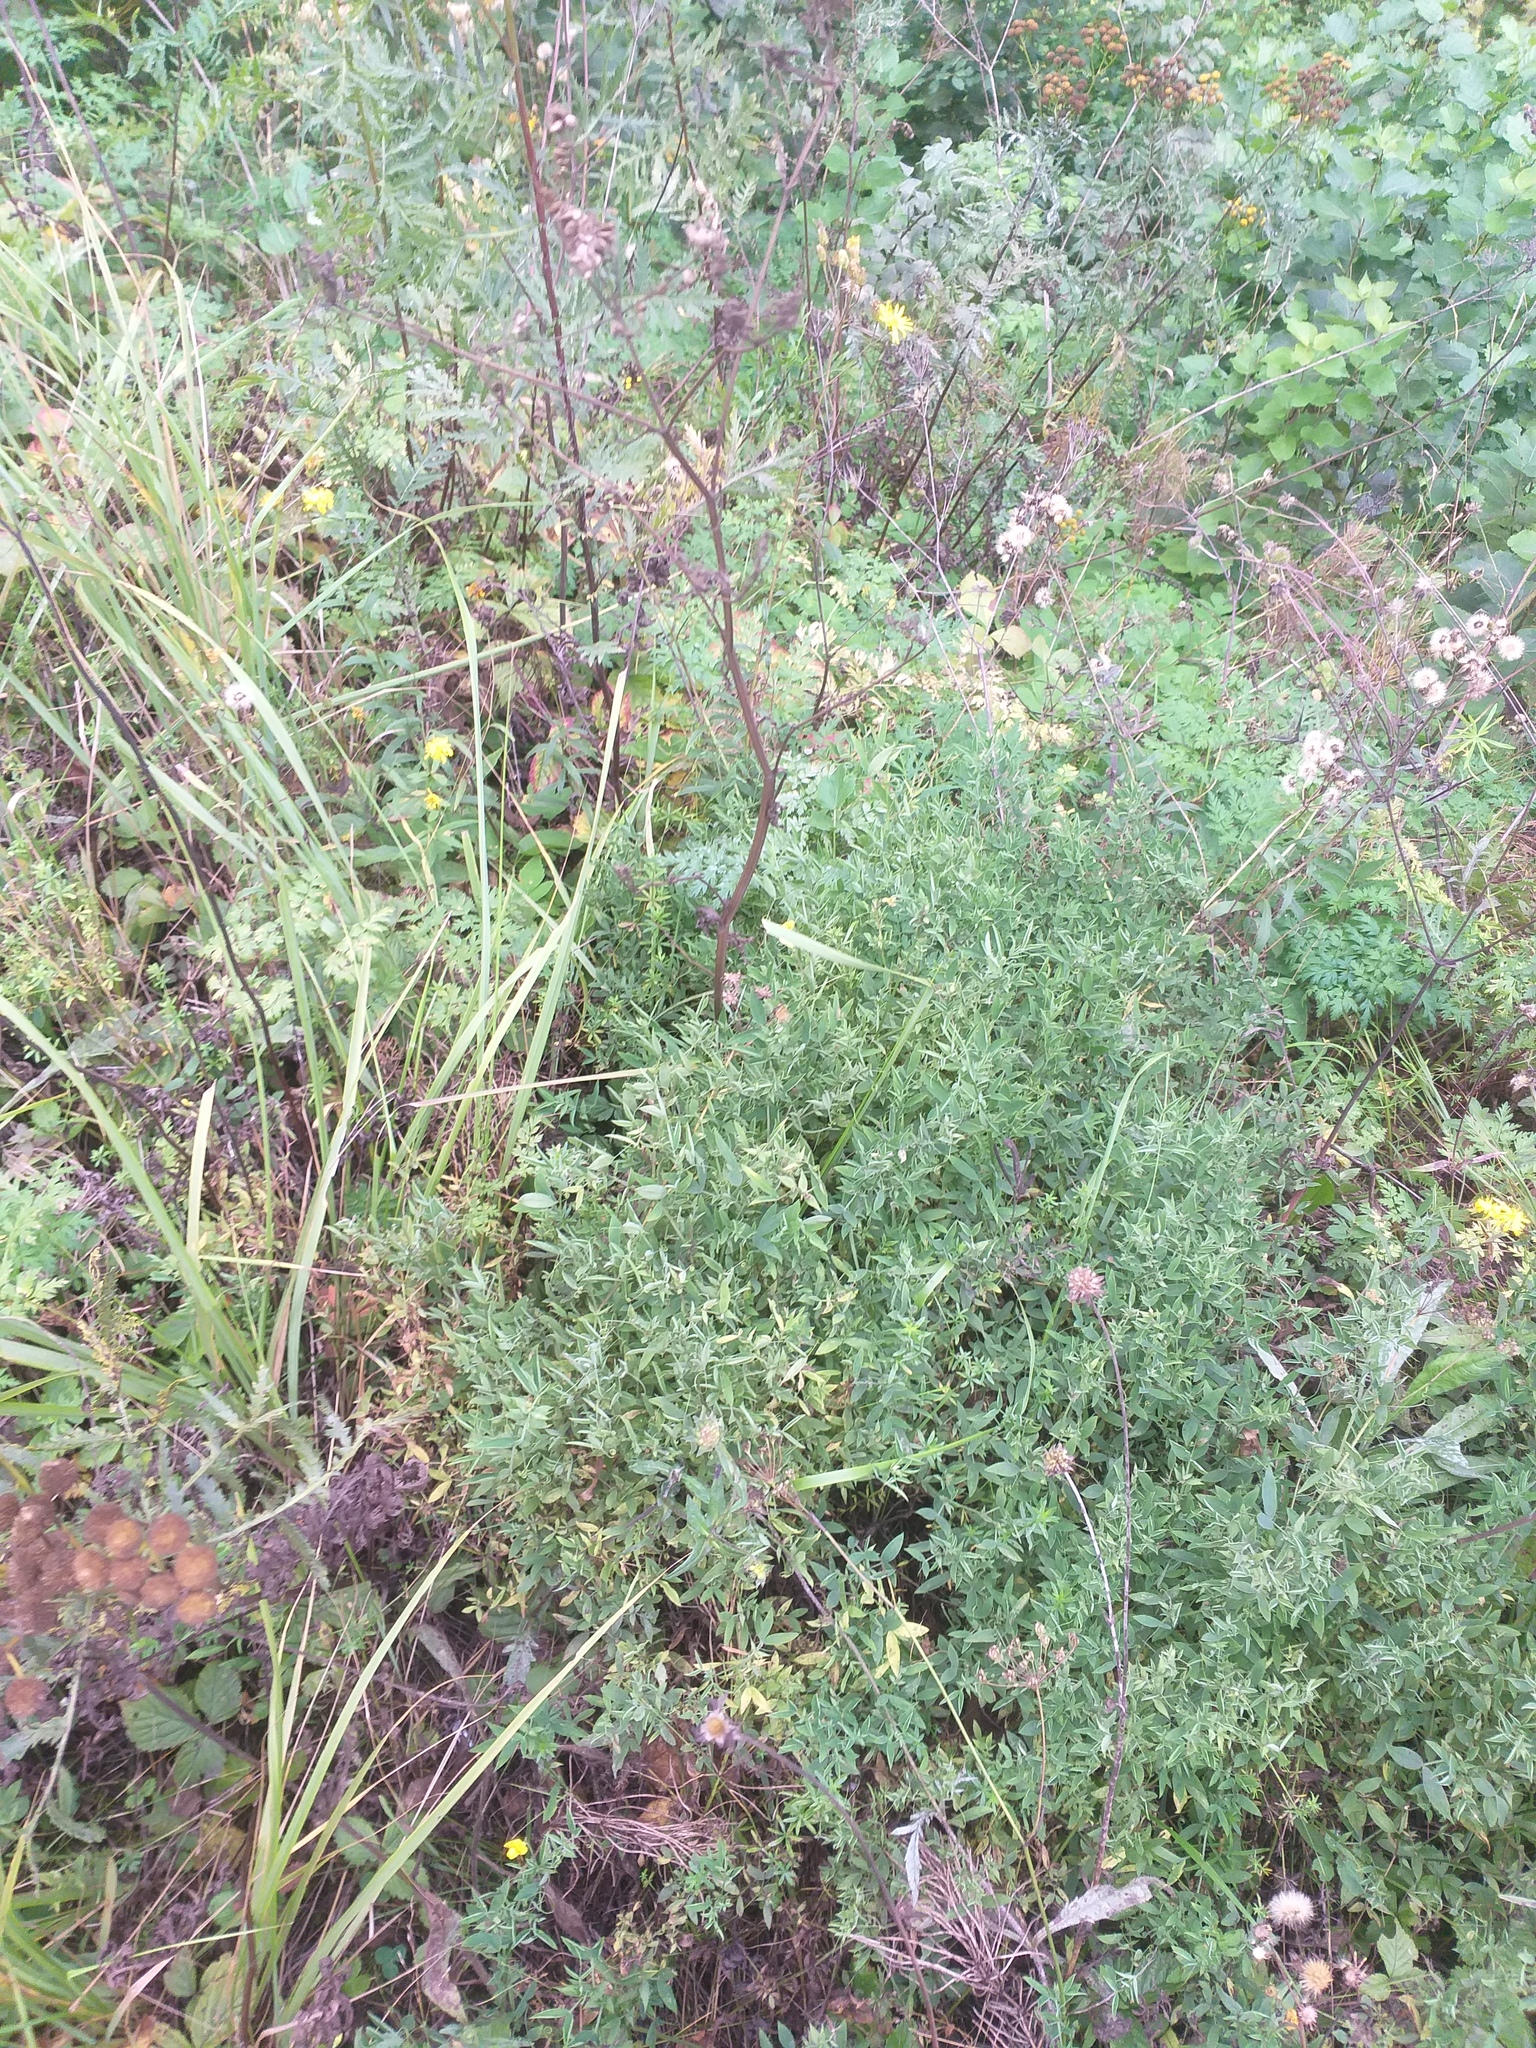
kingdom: Plantae
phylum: Tracheophyta
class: Magnoliopsida
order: Fabales
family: Fabaceae
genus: Lathyrus
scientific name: Lathyrus pratensis
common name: Meadow vetchling
